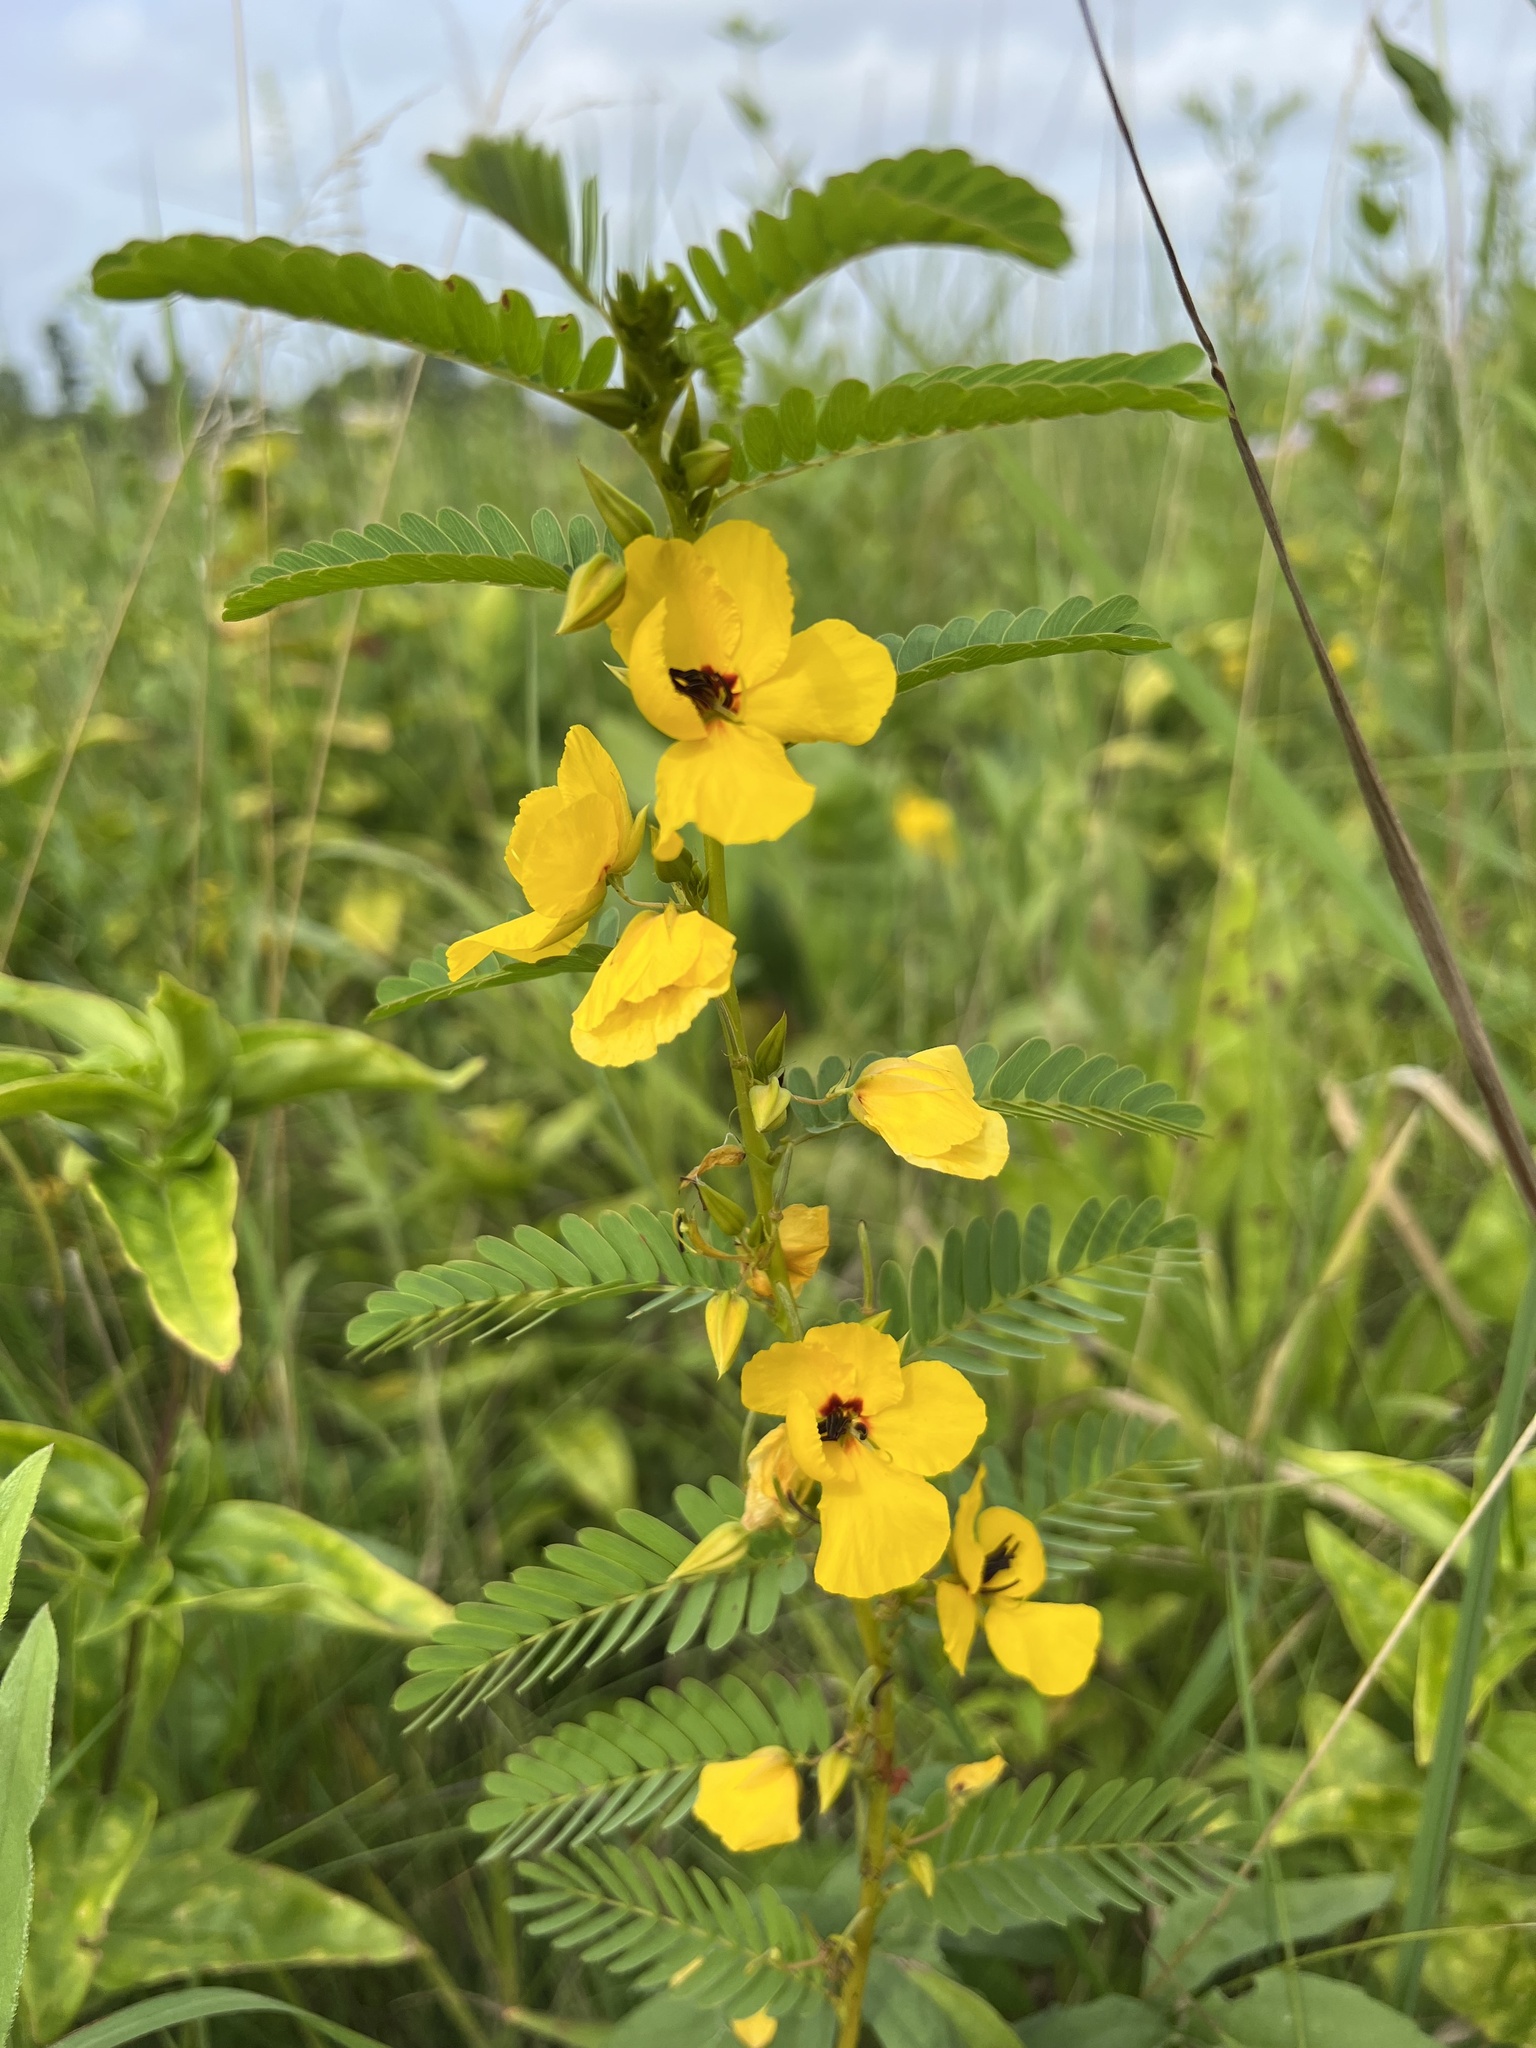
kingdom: Plantae
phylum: Tracheophyta
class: Magnoliopsida
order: Fabales
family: Fabaceae
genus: Chamaecrista
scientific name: Chamaecrista fasciculata
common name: Golden cassia
